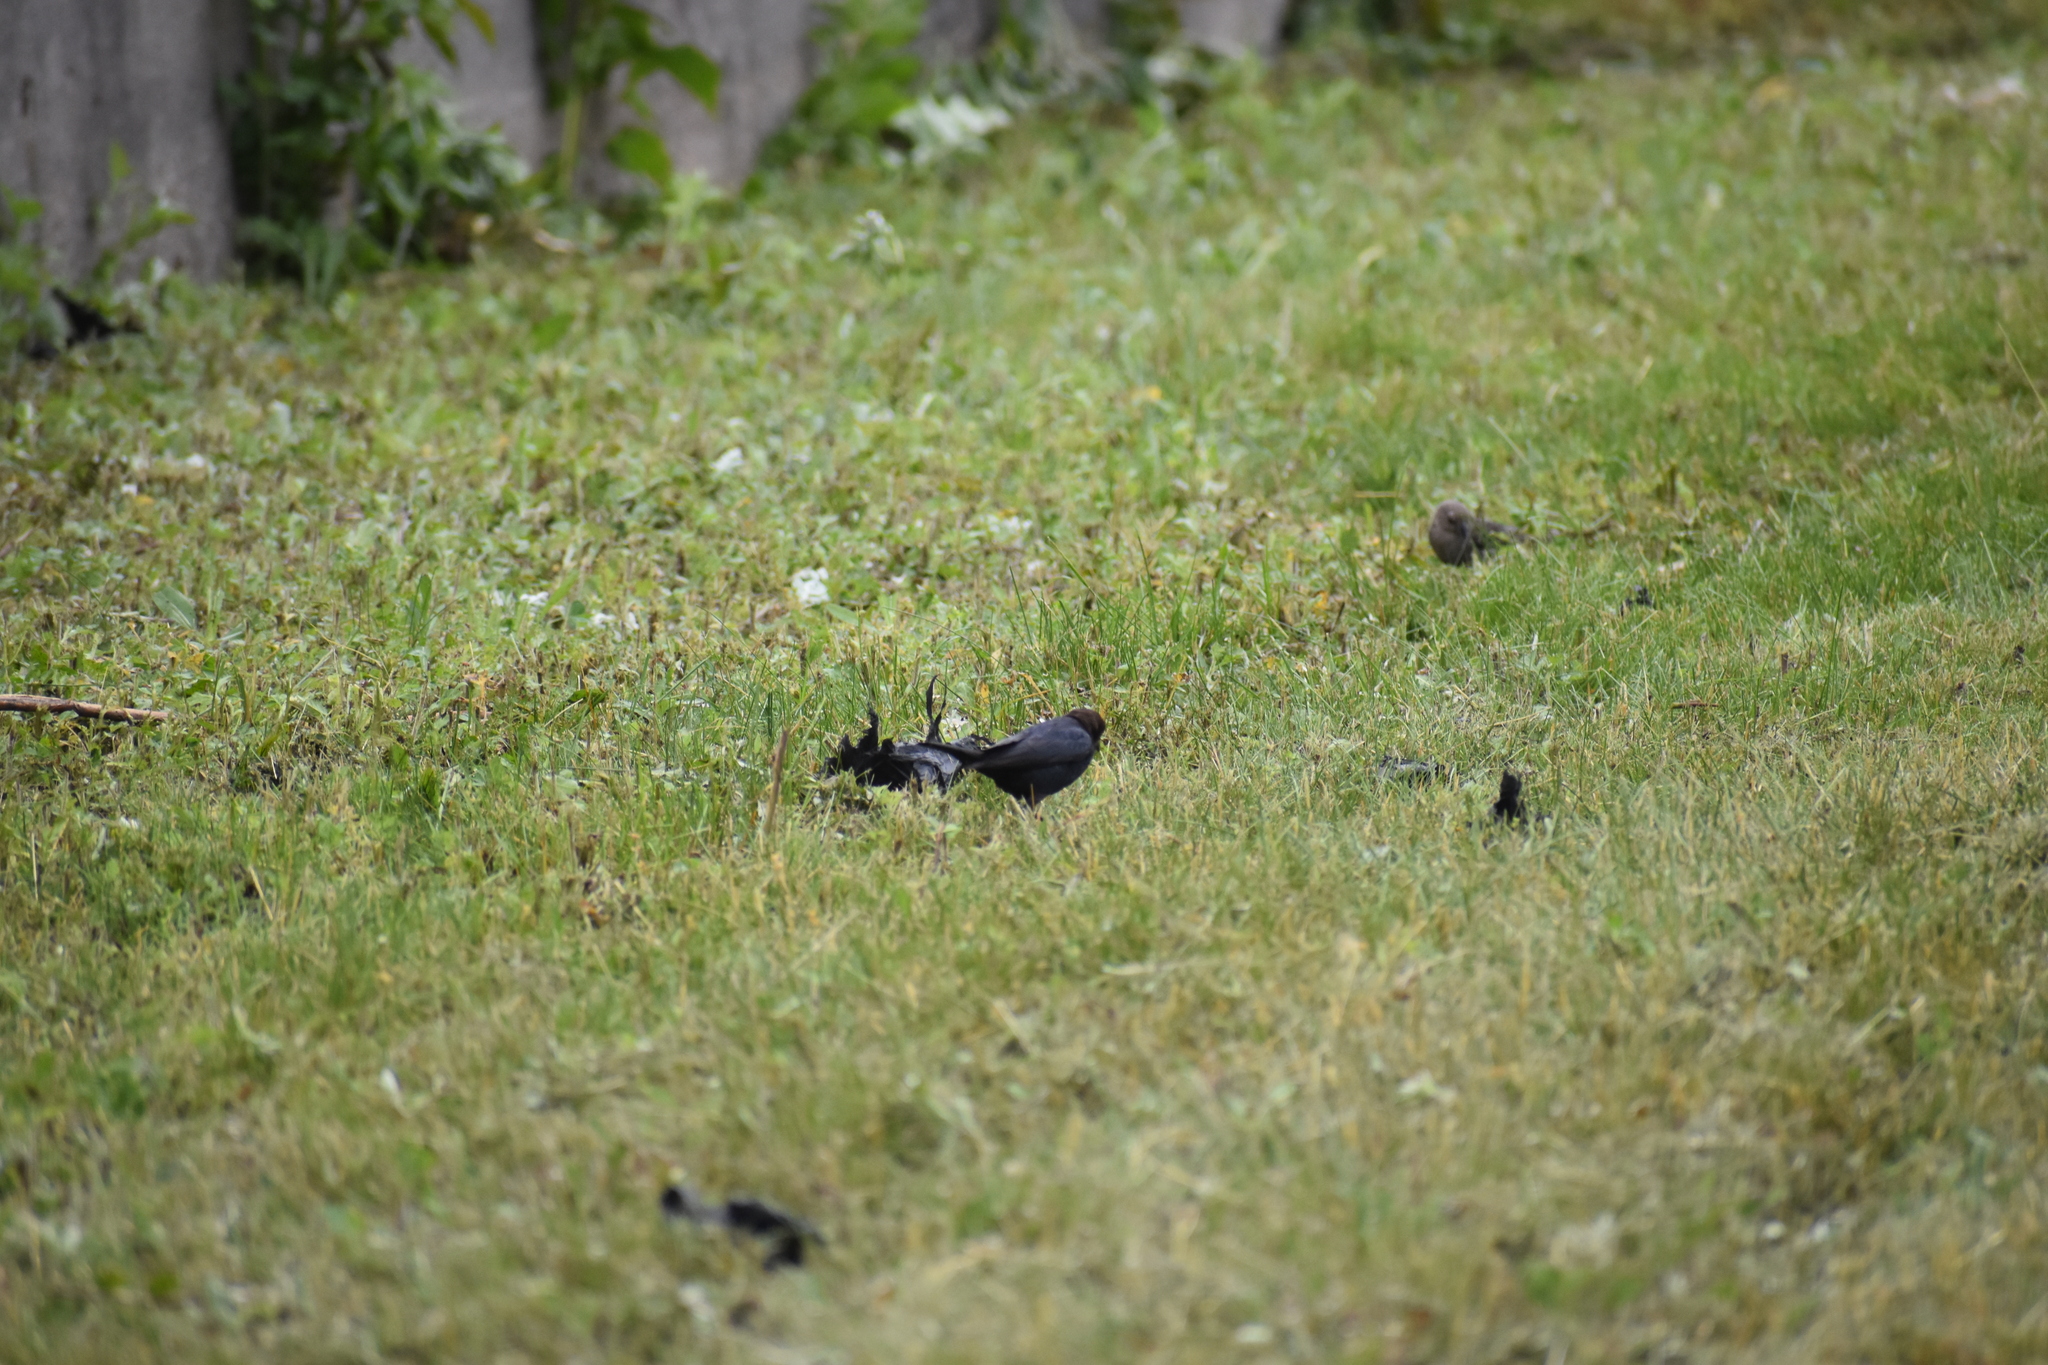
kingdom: Animalia
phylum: Chordata
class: Aves
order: Passeriformes
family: Icteridae
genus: Molothrus
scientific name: Molothrus ater
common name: Brown-headed cowbird
